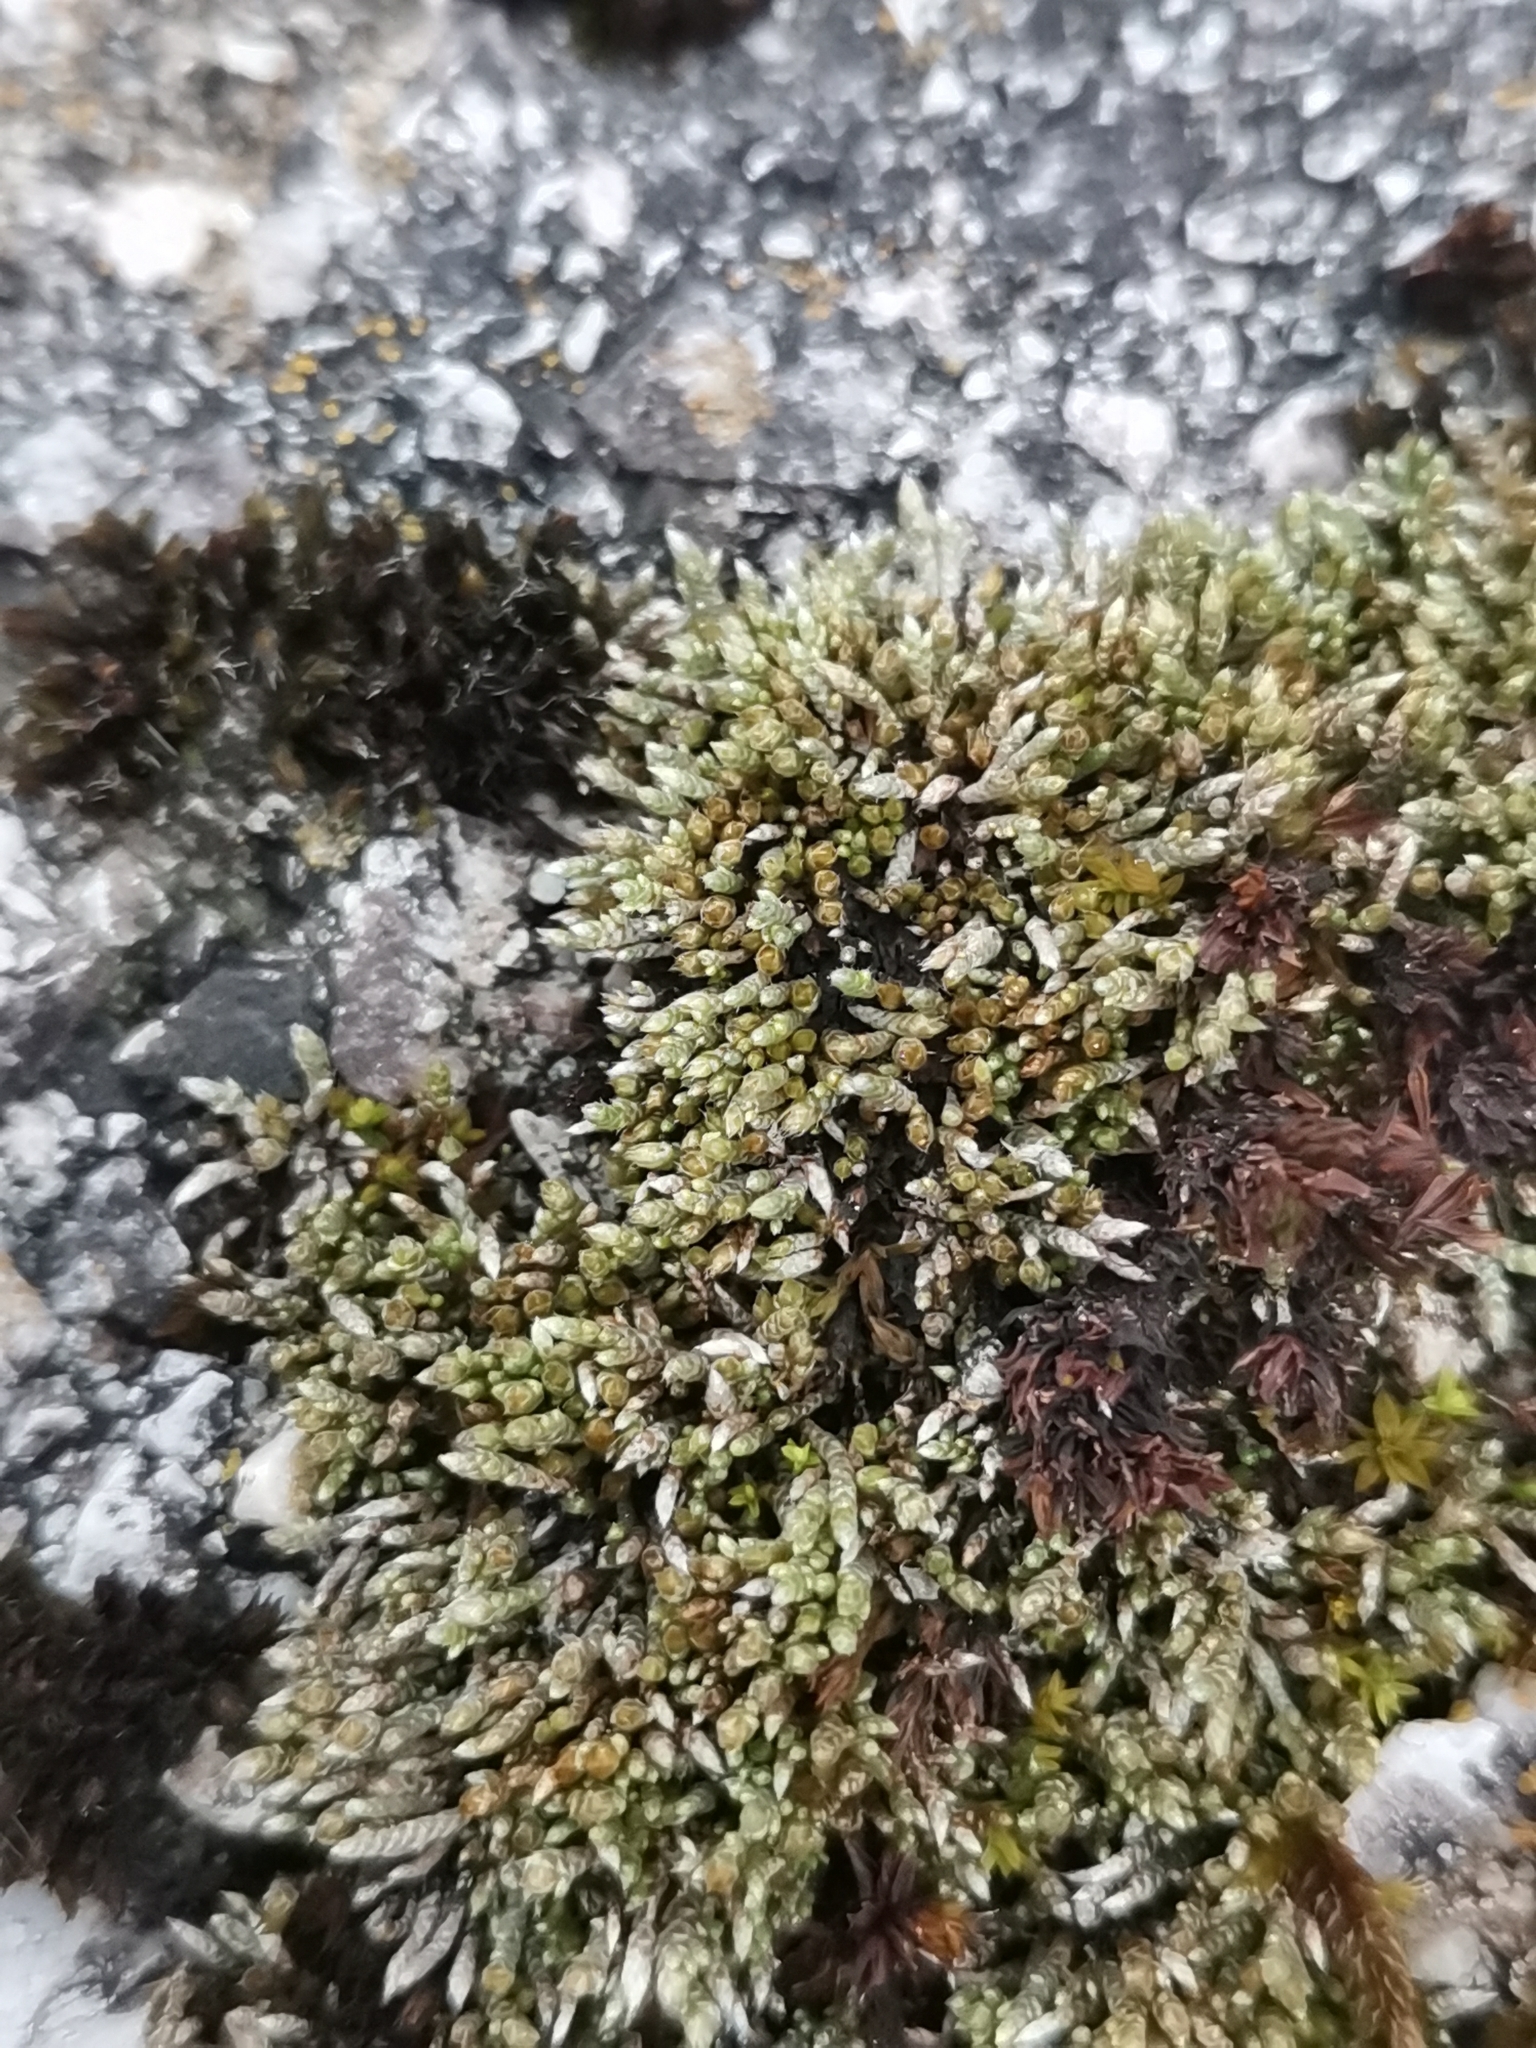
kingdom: Plantae
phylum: Bryophyta
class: Bryopsida
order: Bryales
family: Bryaceae
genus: Bryum
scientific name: Bryum argenteum
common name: Silver-moss
